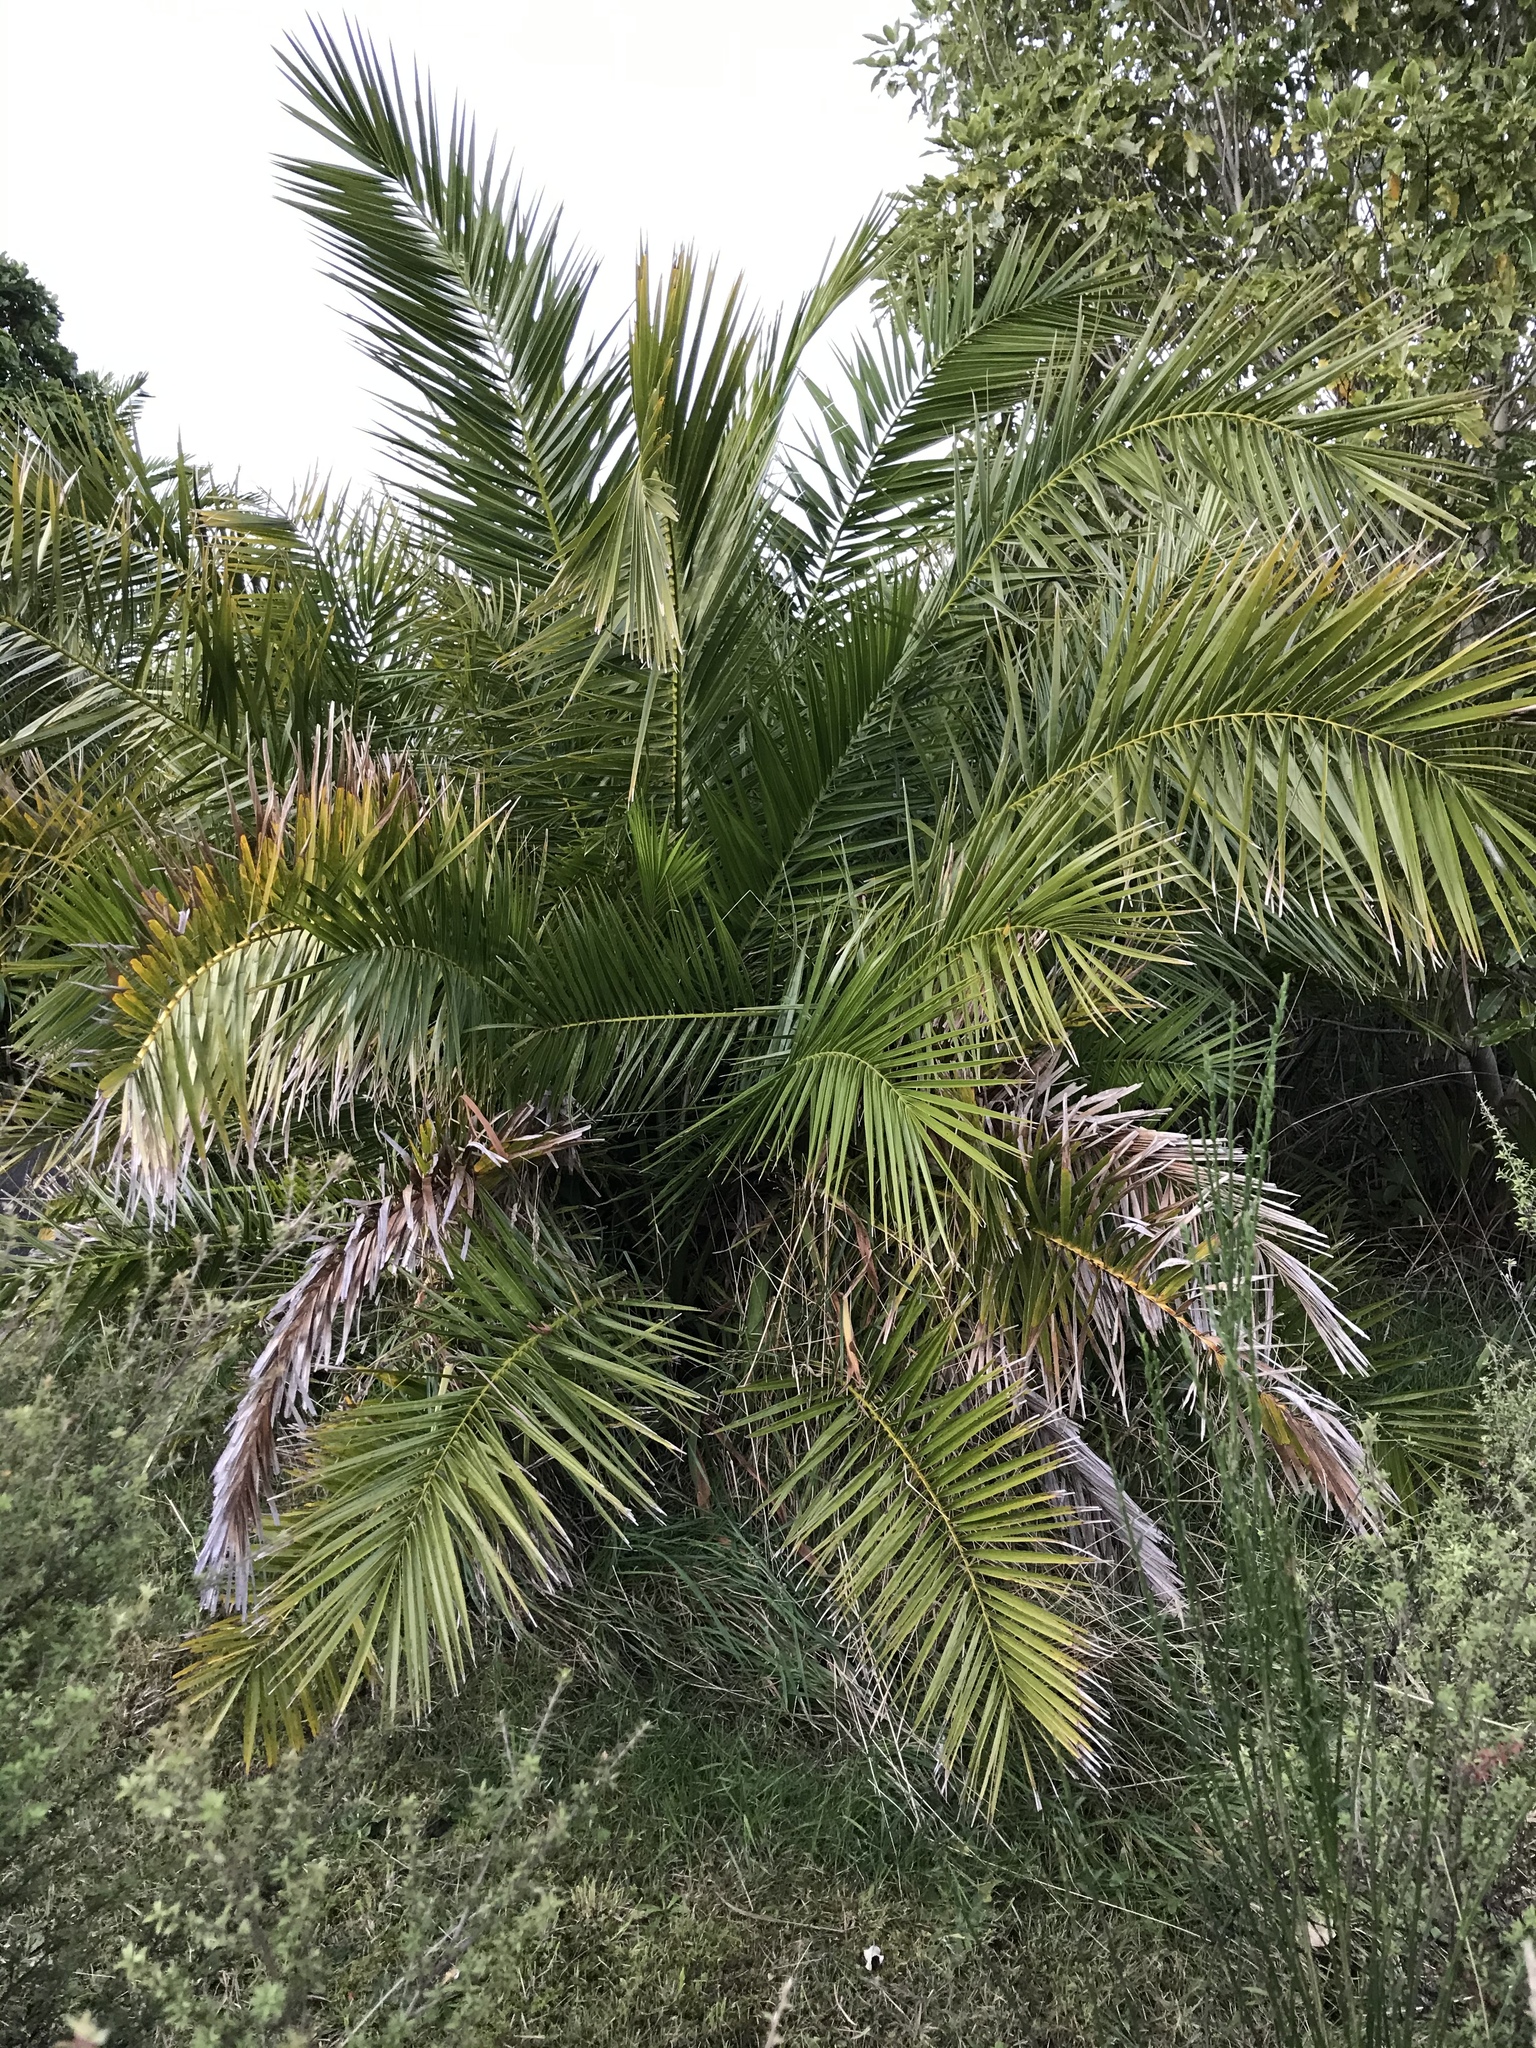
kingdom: Plantae
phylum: Tracheophyta
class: Liliopsida
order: Arecales
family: Arecaceae
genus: Phoenix
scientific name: Phoenix canariensis
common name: Canary island date palm
